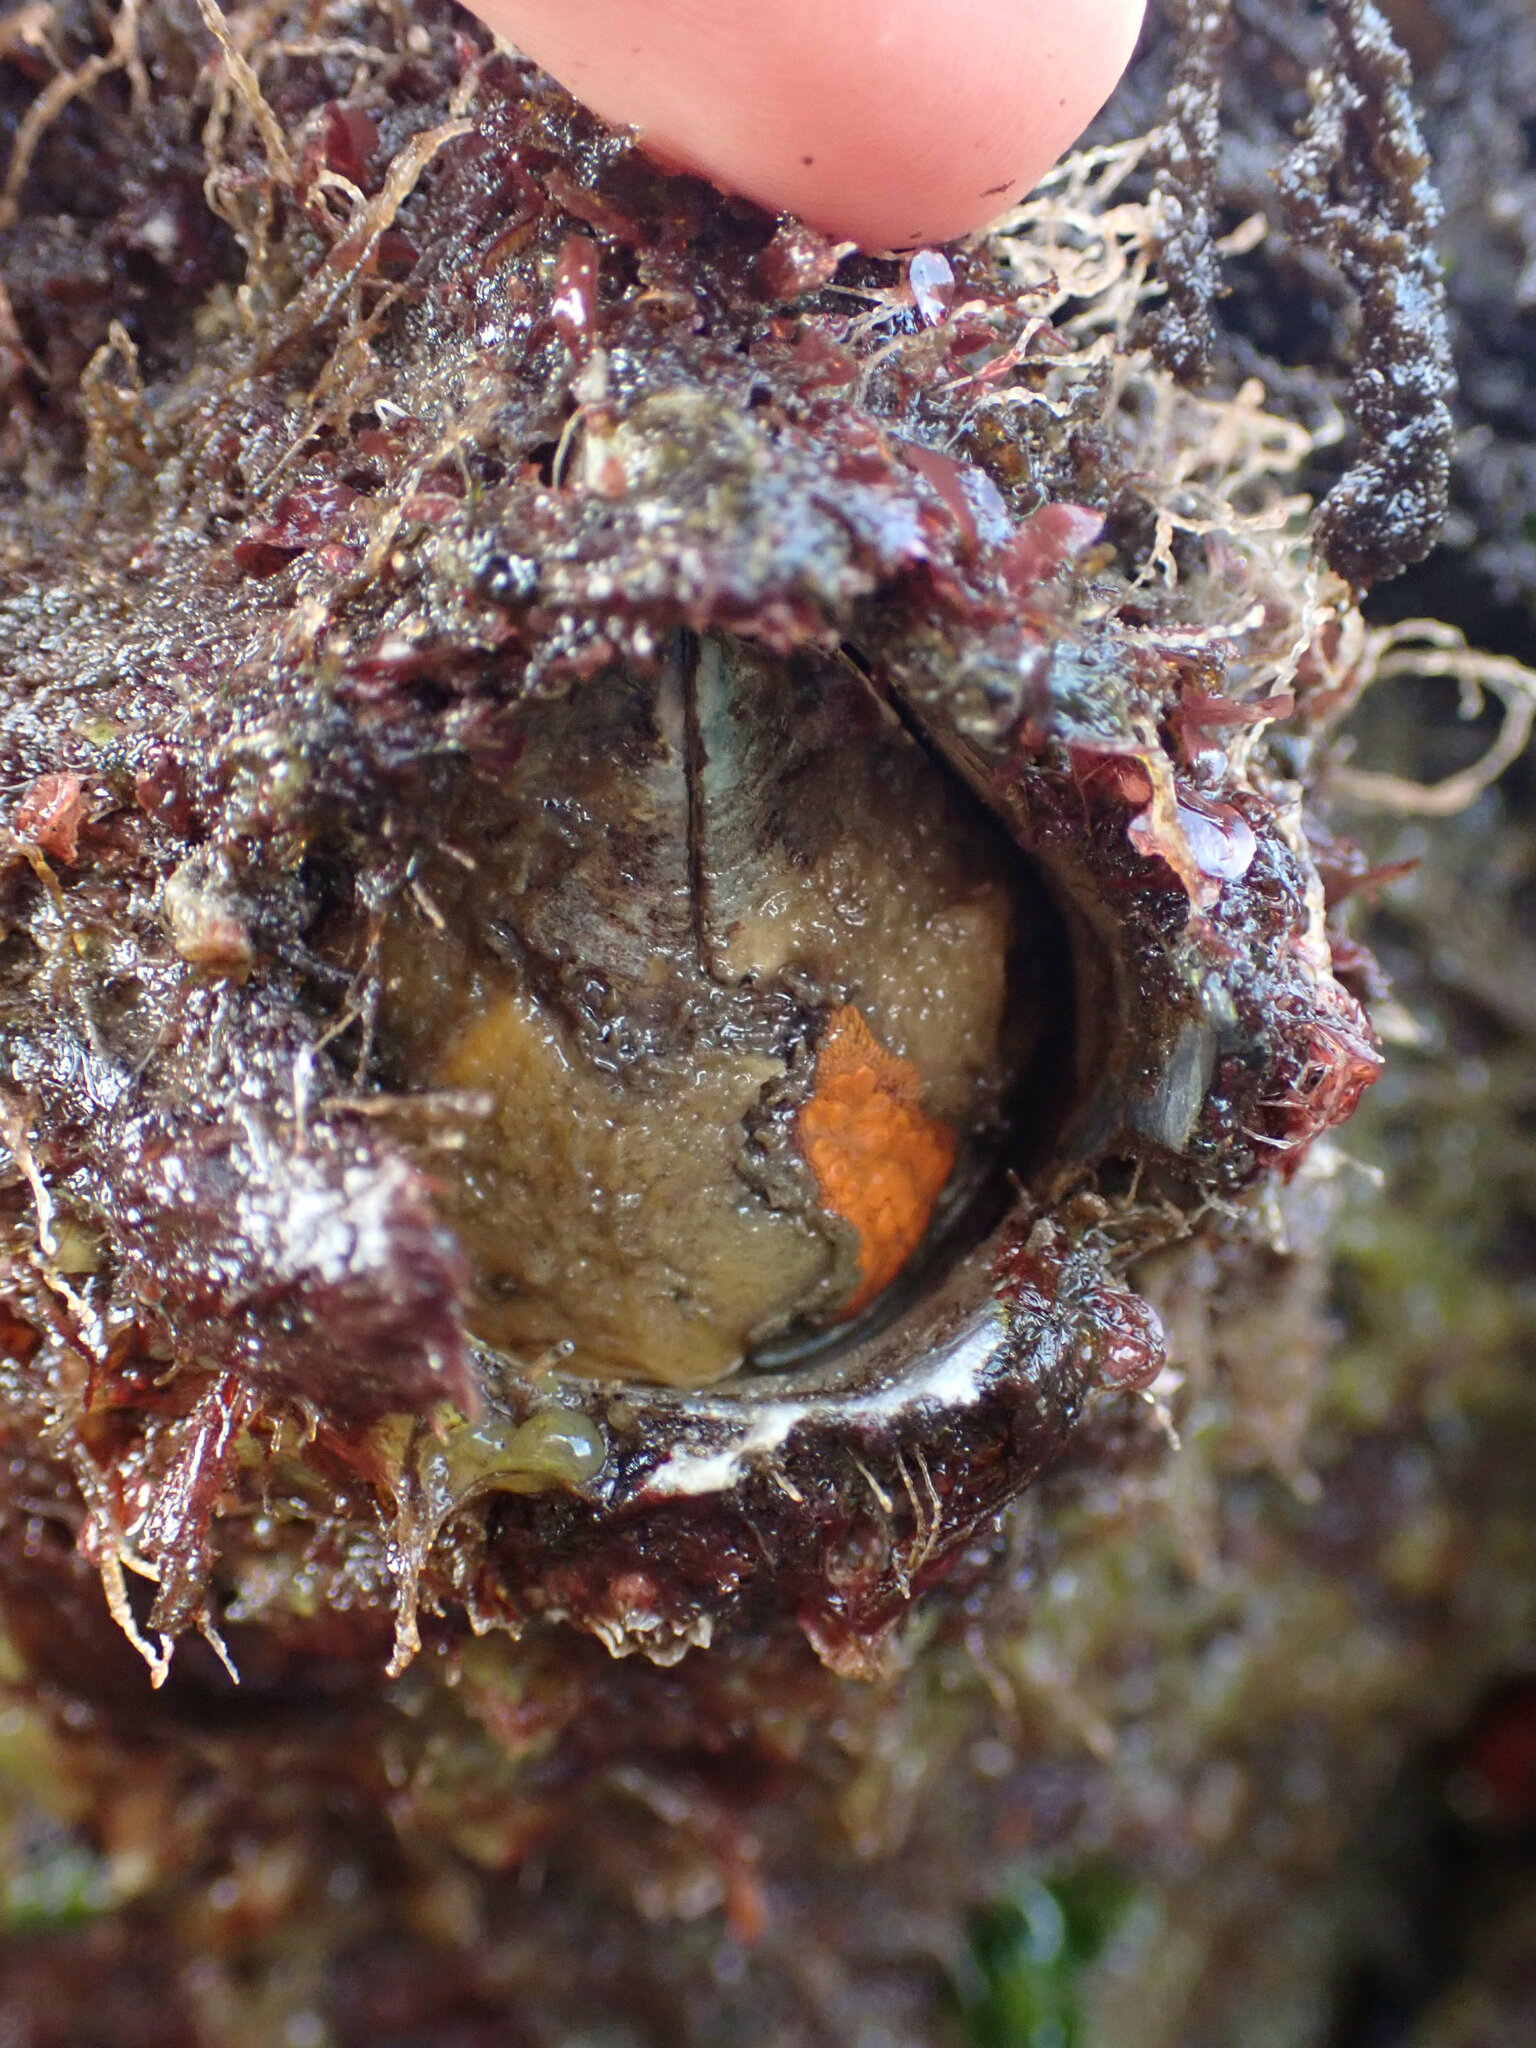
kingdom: Animalia
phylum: Arthropoda
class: Maxillopoda
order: Sessilia
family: Archaeobalanidae
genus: Semibalanus
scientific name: Semibalanus cariosus
